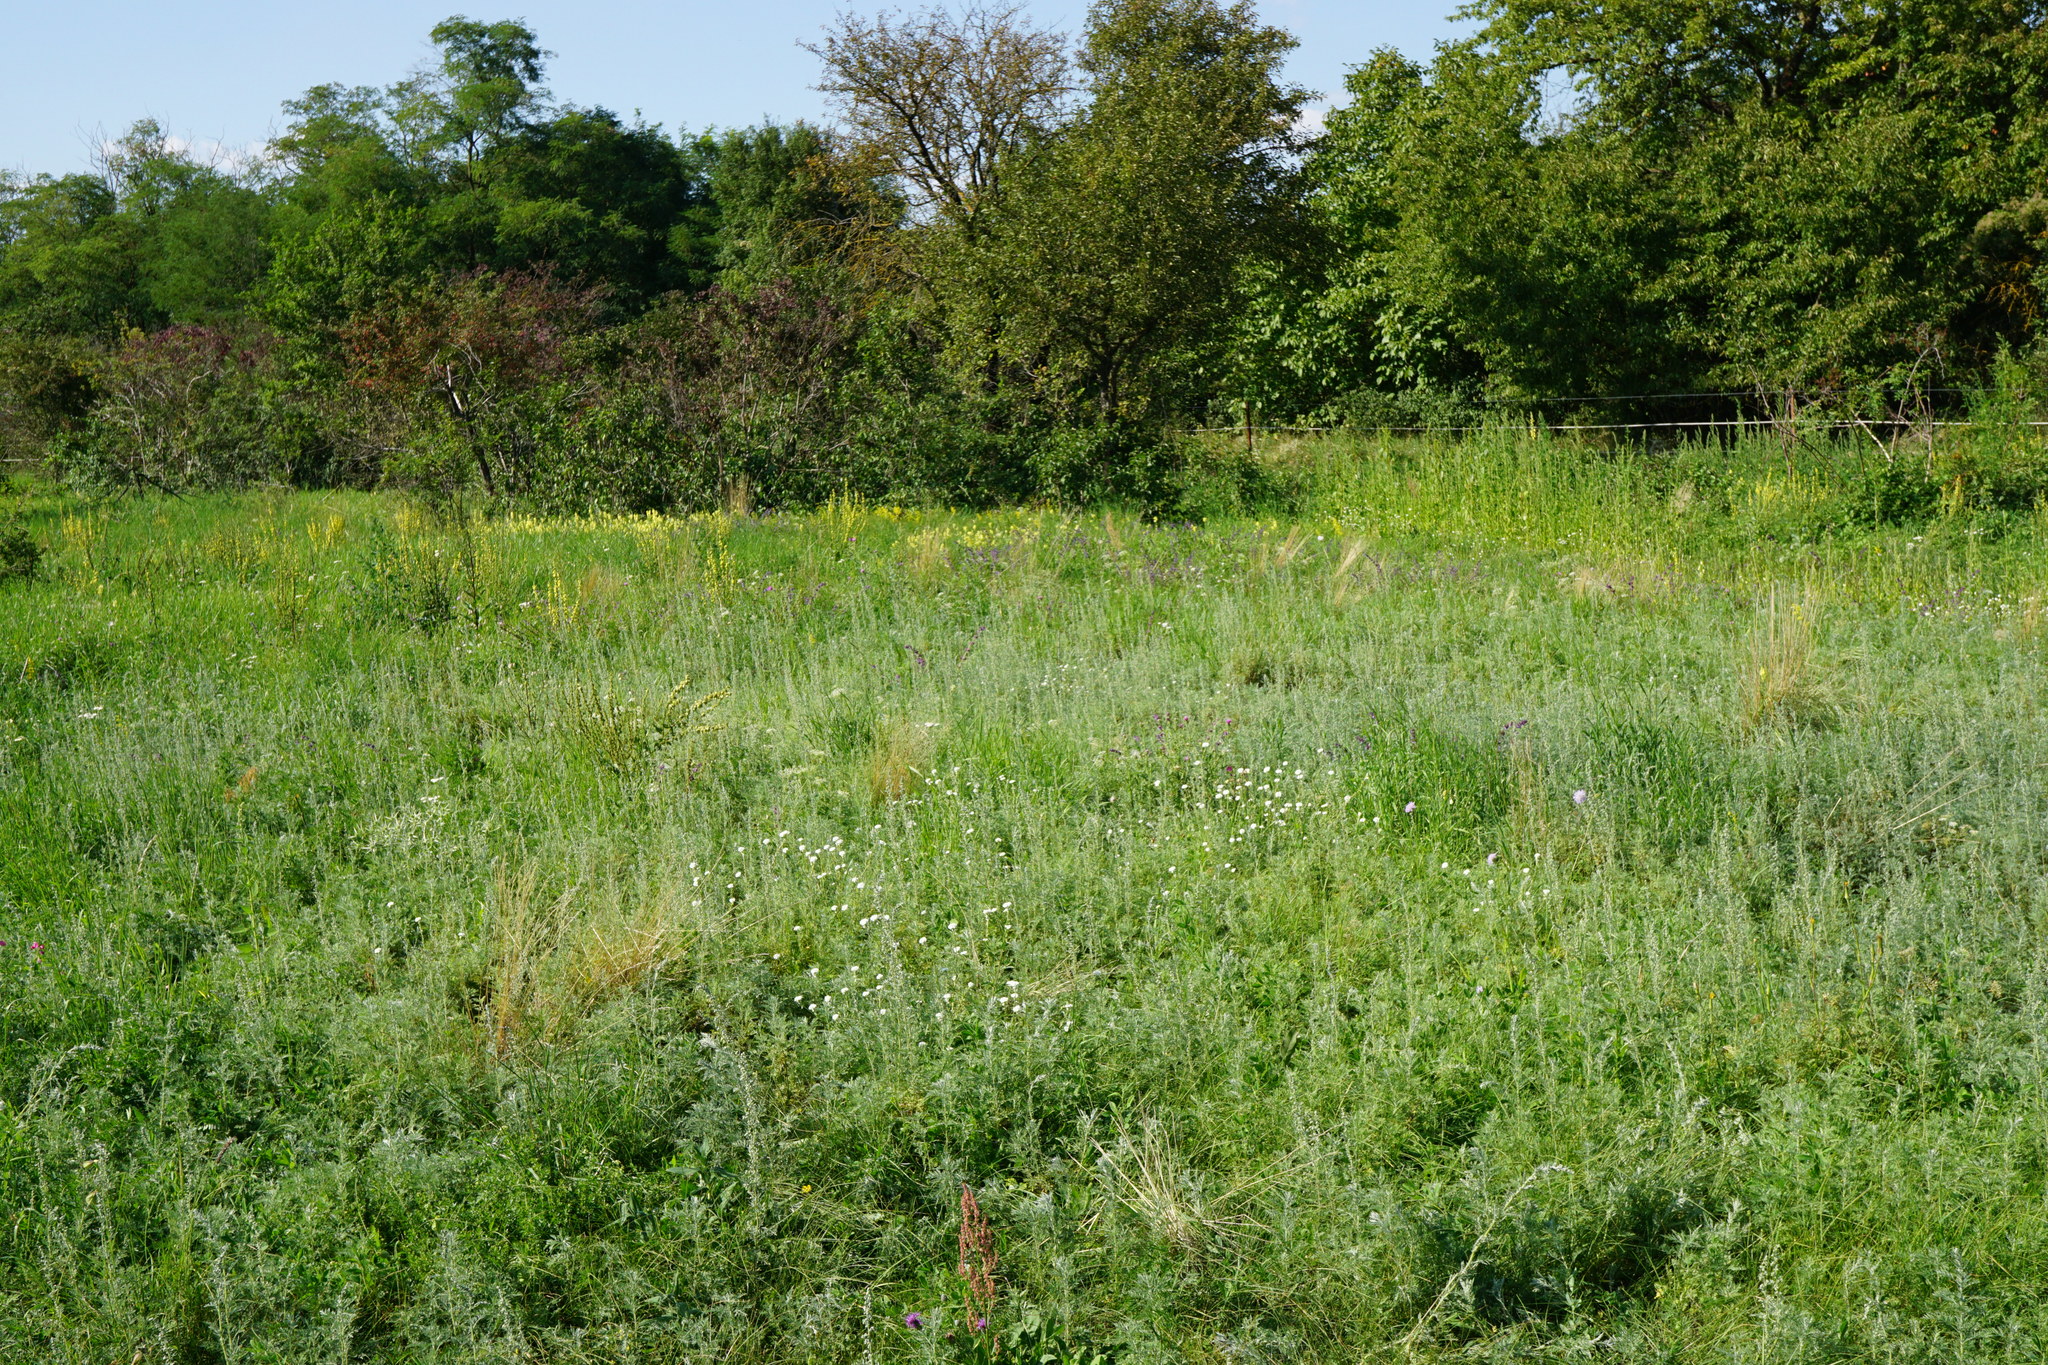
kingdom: Plantae
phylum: Tracheophyta
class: Magnoliopsida
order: Asterales
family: Asteraceae
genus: Artemisia
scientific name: Artemisia pontica
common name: Roman wormwood
